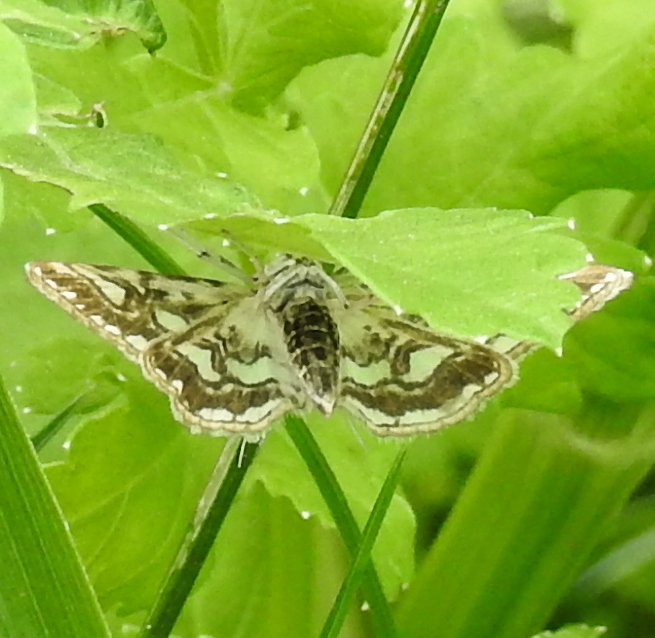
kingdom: Animalia
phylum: Arthropoda
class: Insecta
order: Lepidoptera
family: Crambidae
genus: Elophila
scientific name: Elophila nymphaeata
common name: Brown china-mark
